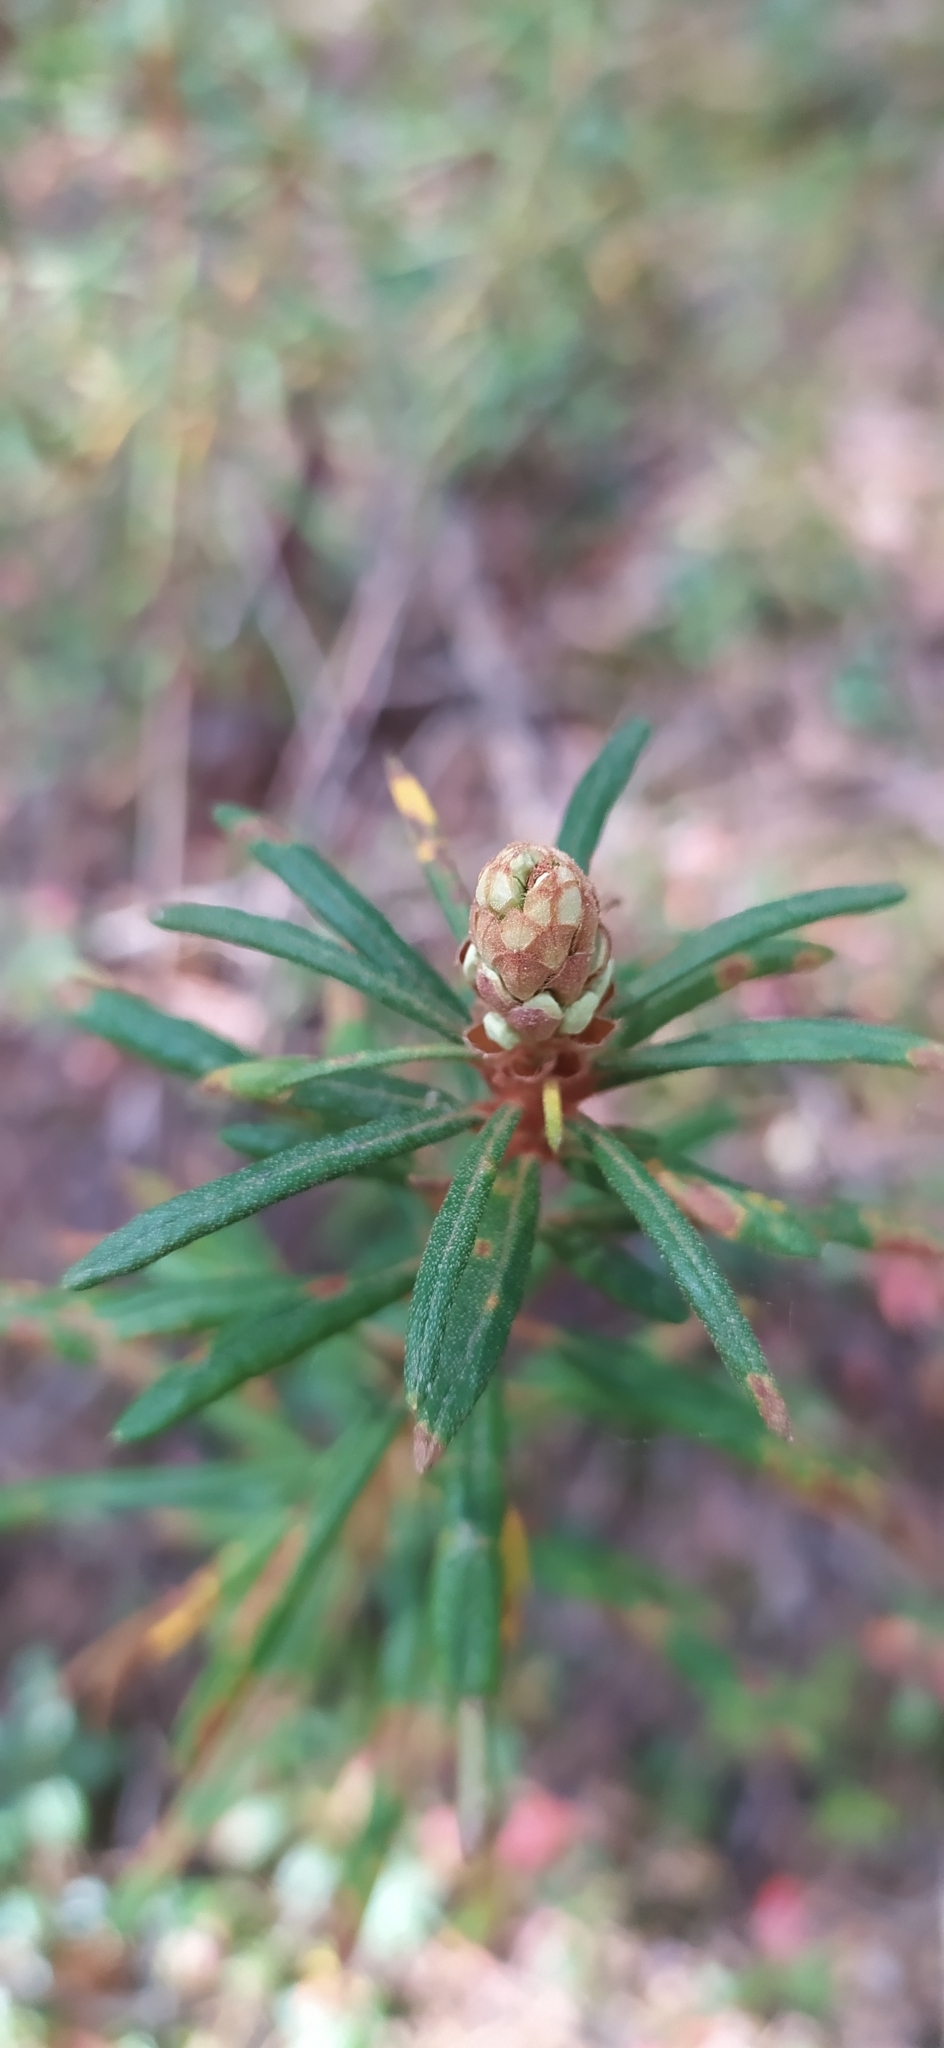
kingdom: Plantae
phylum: Tracheophyta
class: Magnoliopsida
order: Ericales
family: Ericaceae
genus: Rhododendron
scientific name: Rhododendron tomentosum
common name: Marsh labrador tea
